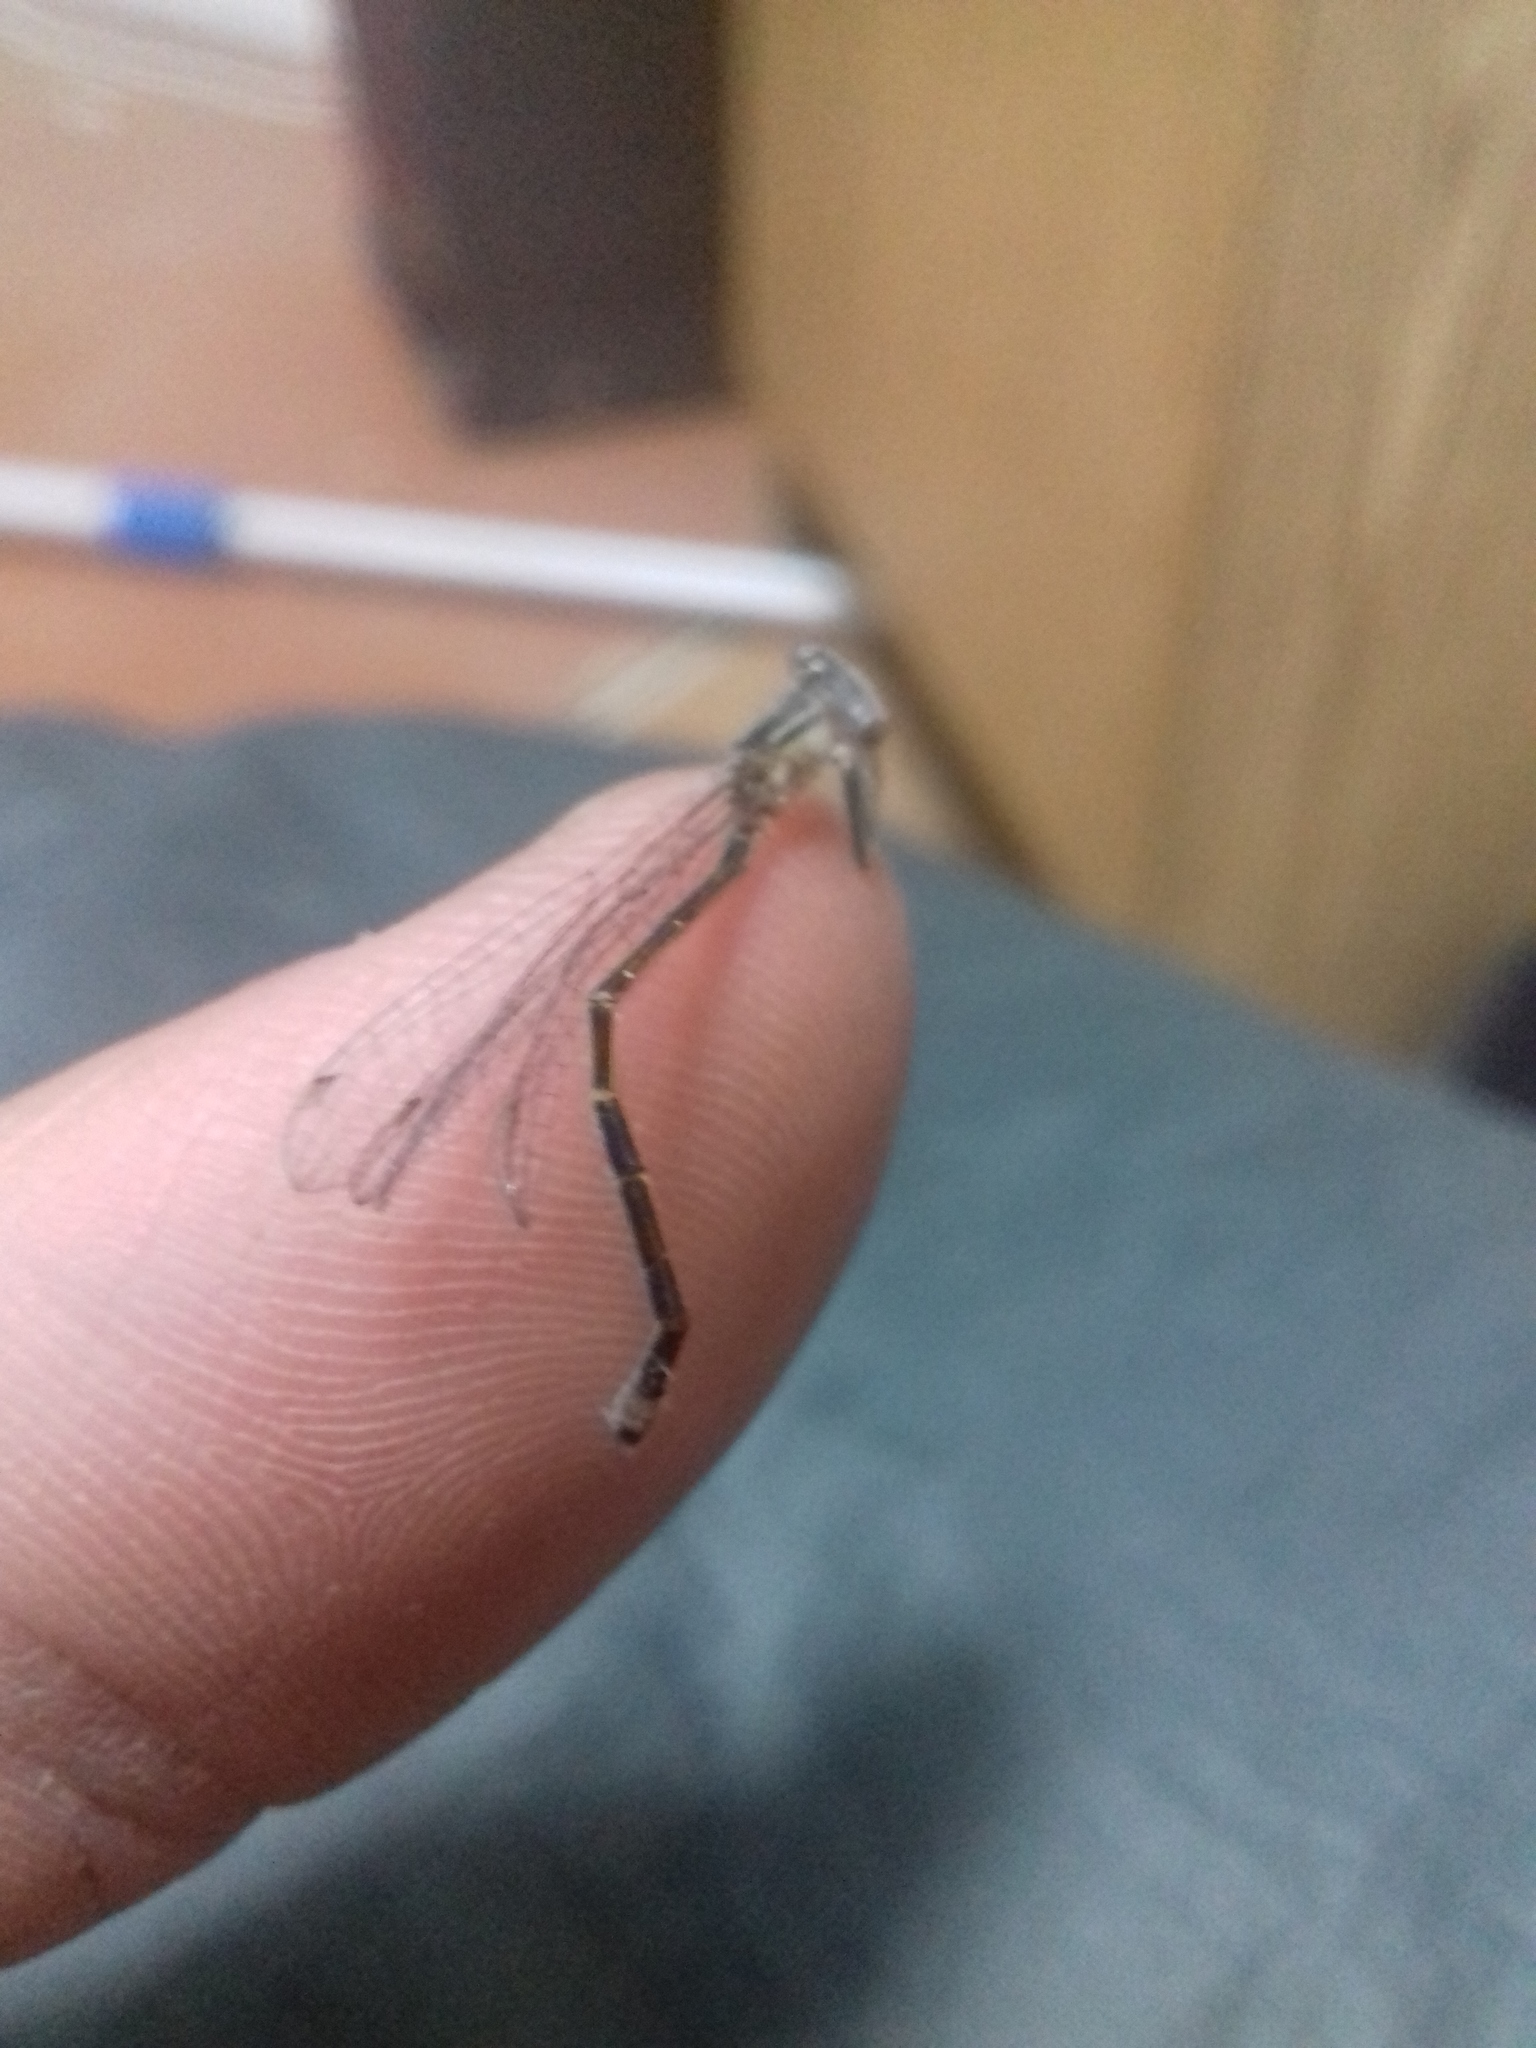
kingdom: Animalia
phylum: Arthropoda
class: Insecta
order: Odonata
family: Coenagrionidae
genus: Ischnura
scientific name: Ischnura elegans
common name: Blue-tailed damselfly
